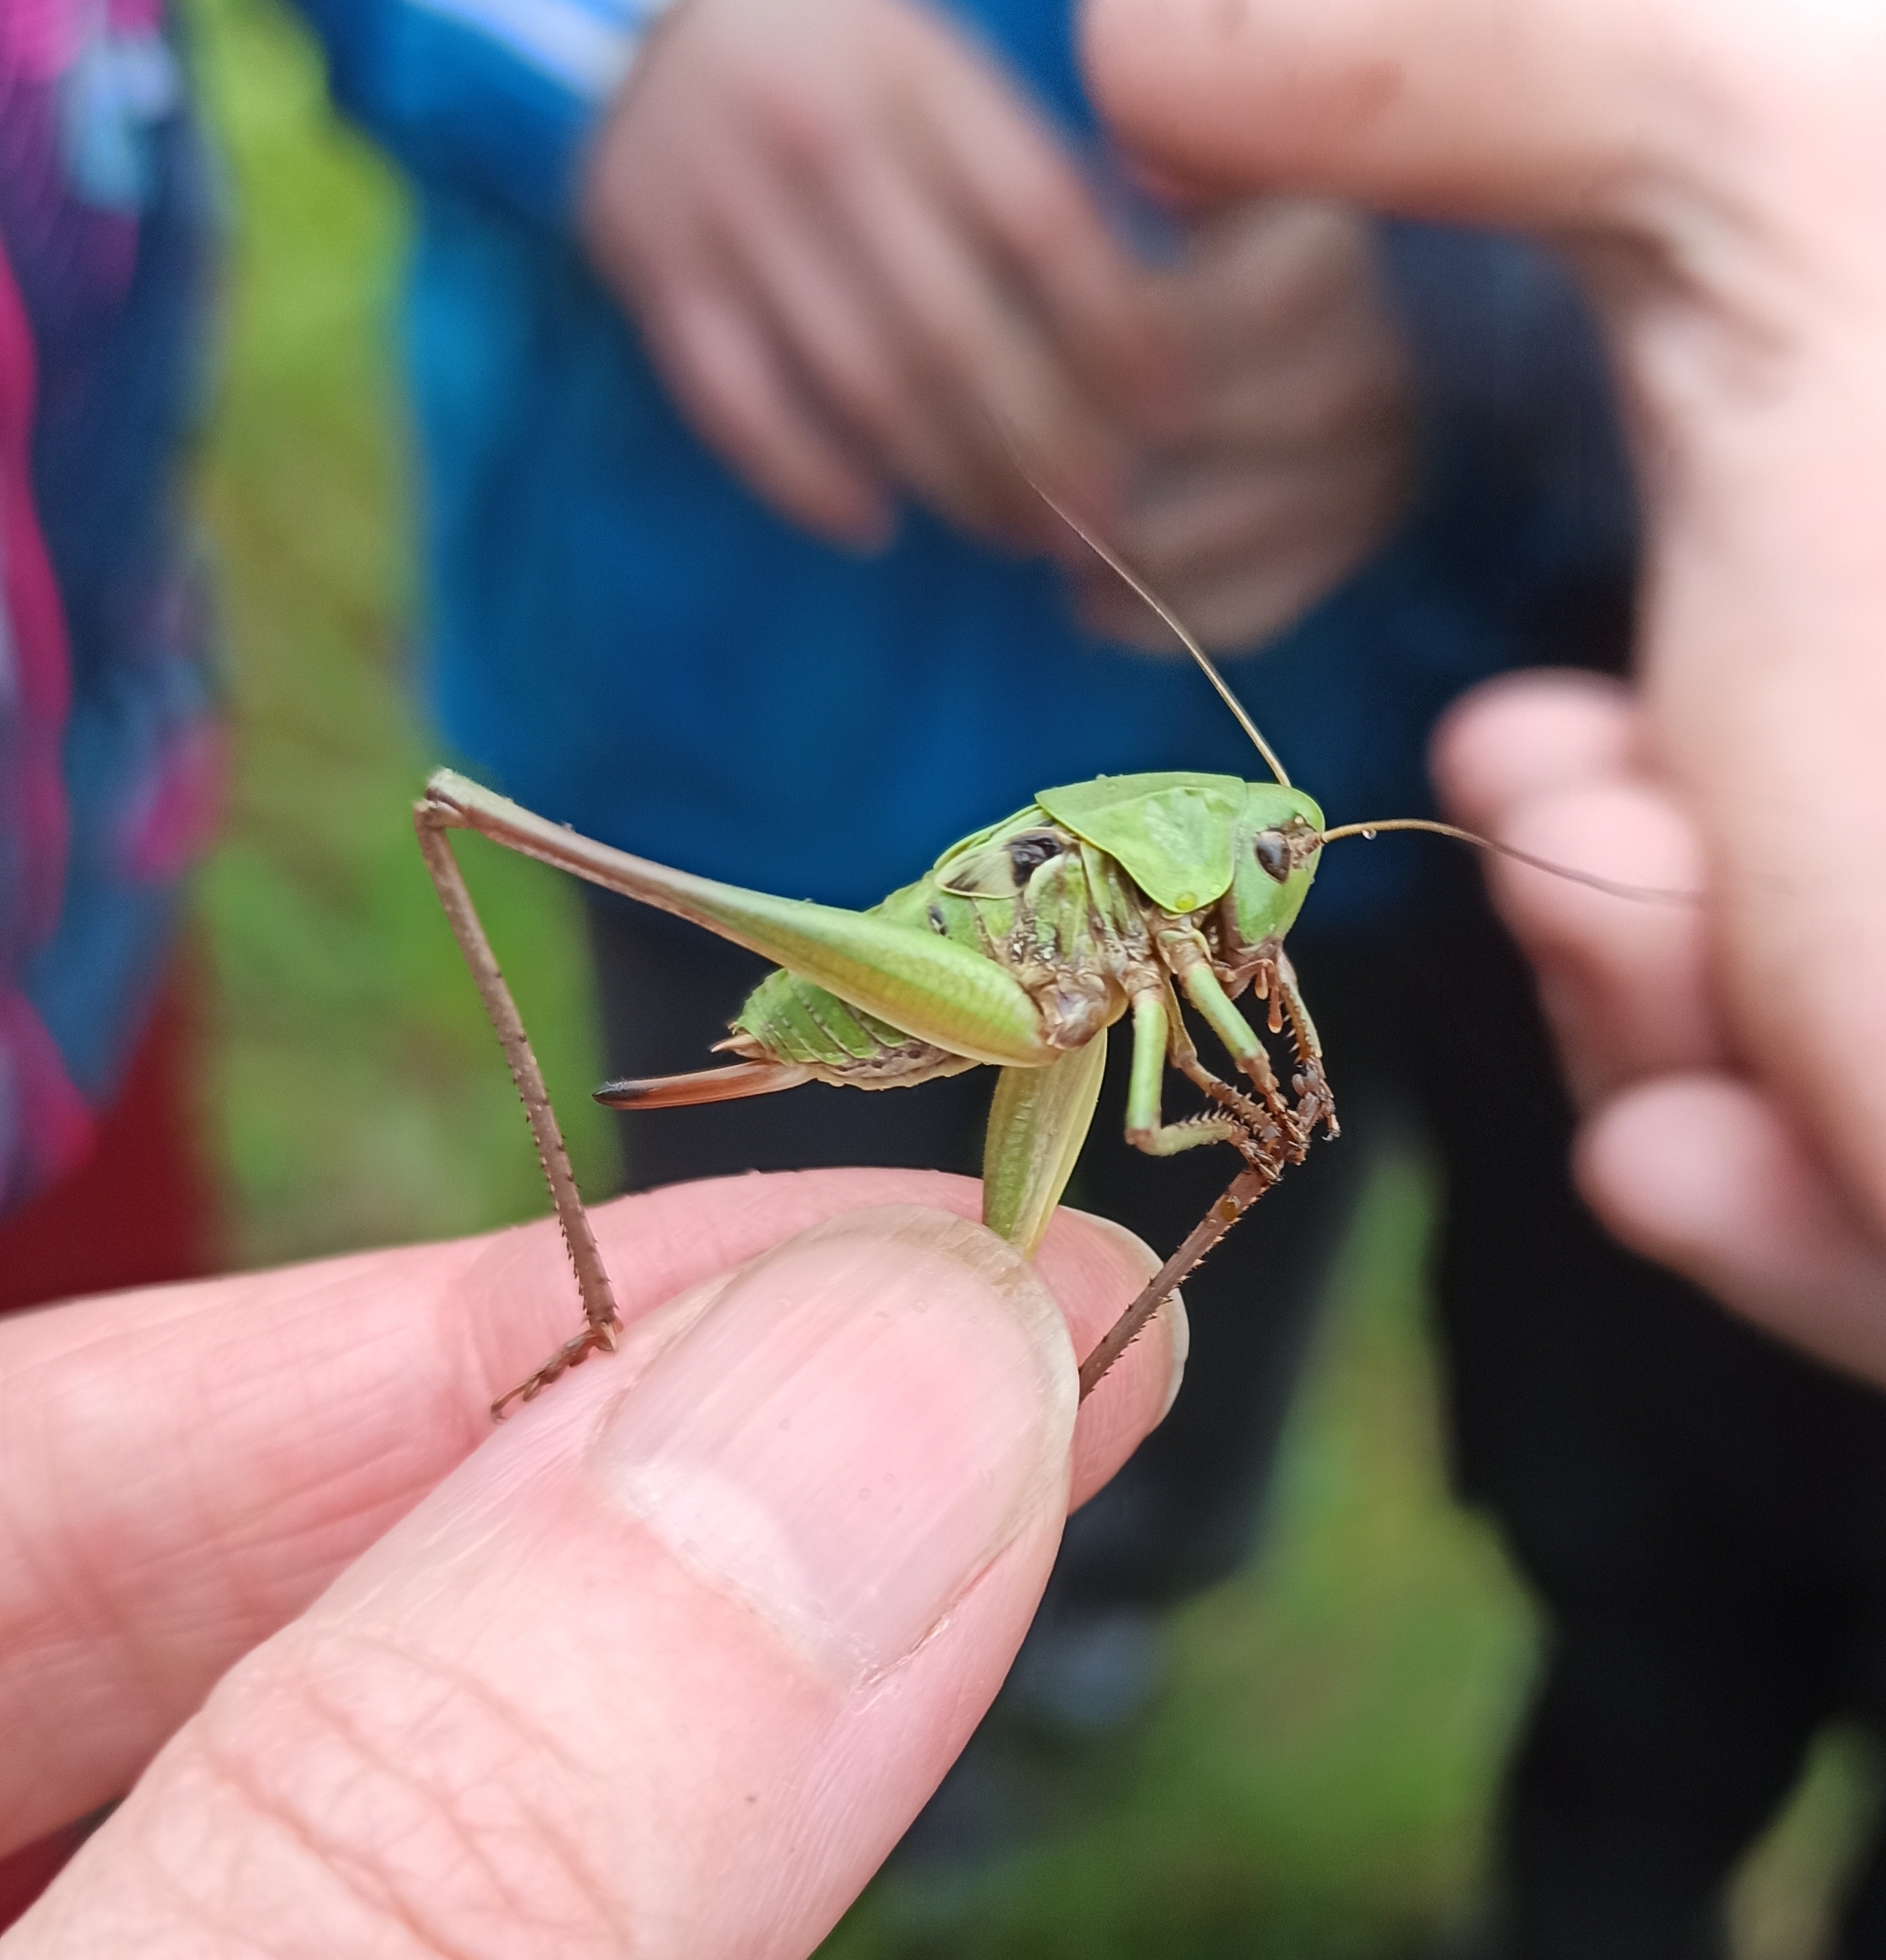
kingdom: Animalia
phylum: Arthropoda
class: Insecta
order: Orthoptera
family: Tettigoniidae
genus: Decticus
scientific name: Decticus verrucivorus
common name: Wart-biter
